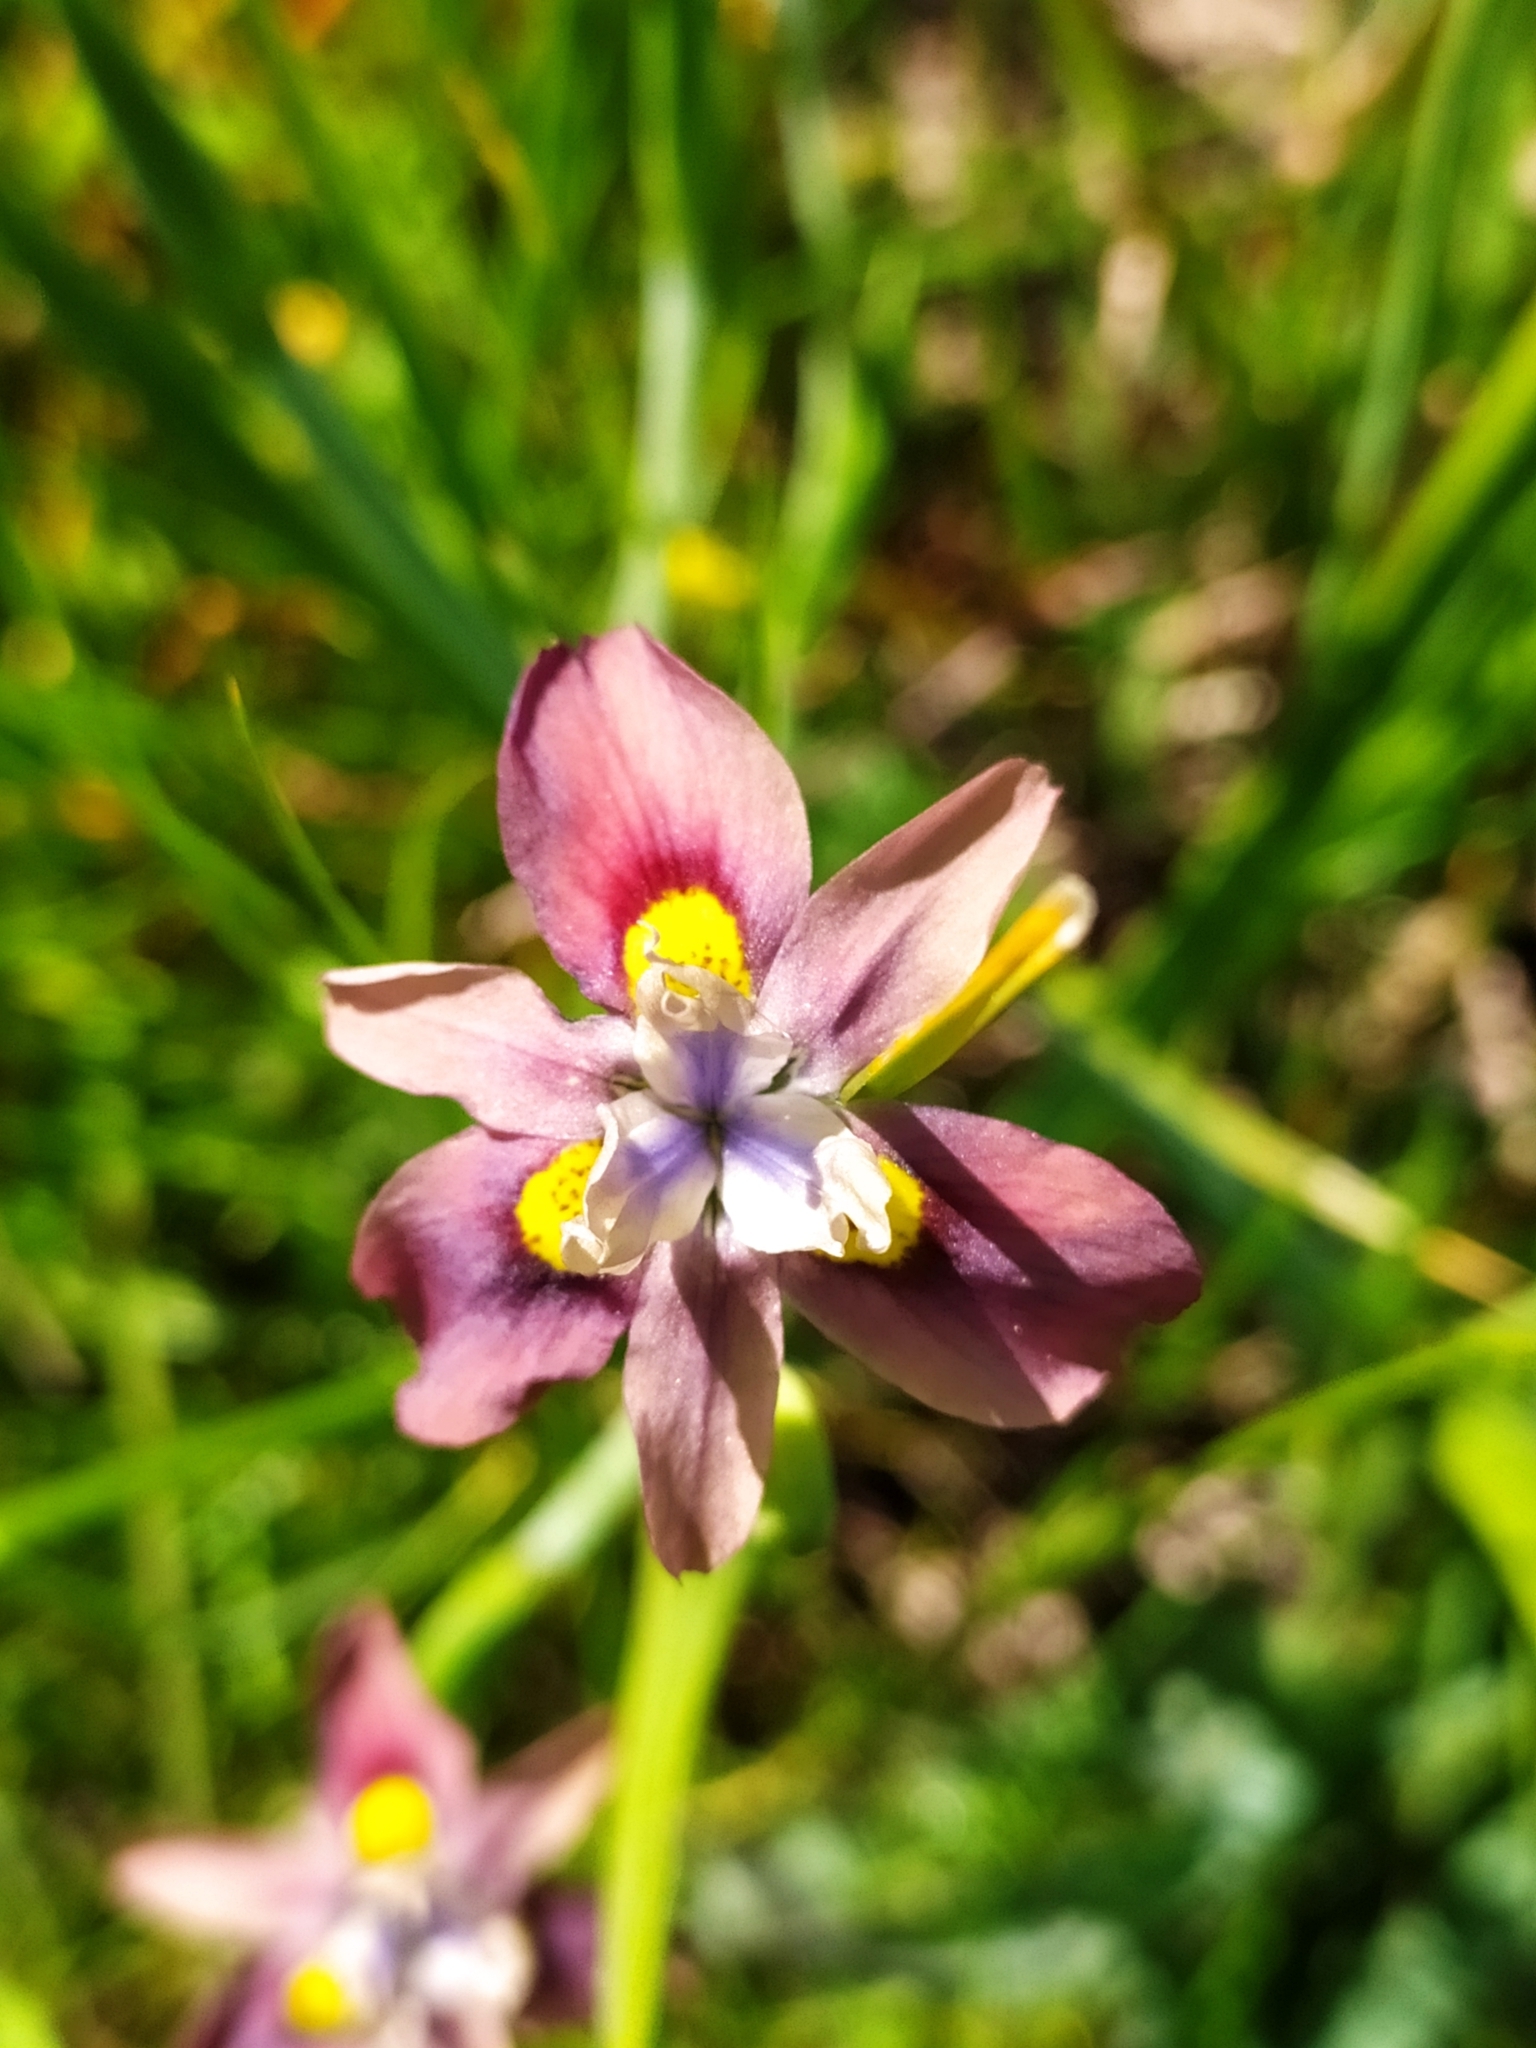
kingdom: Plantae
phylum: Tracheophyta
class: Liliopsida
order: Asparagales
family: Iridaceae
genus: Moraea
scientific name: Moraea vegeta
